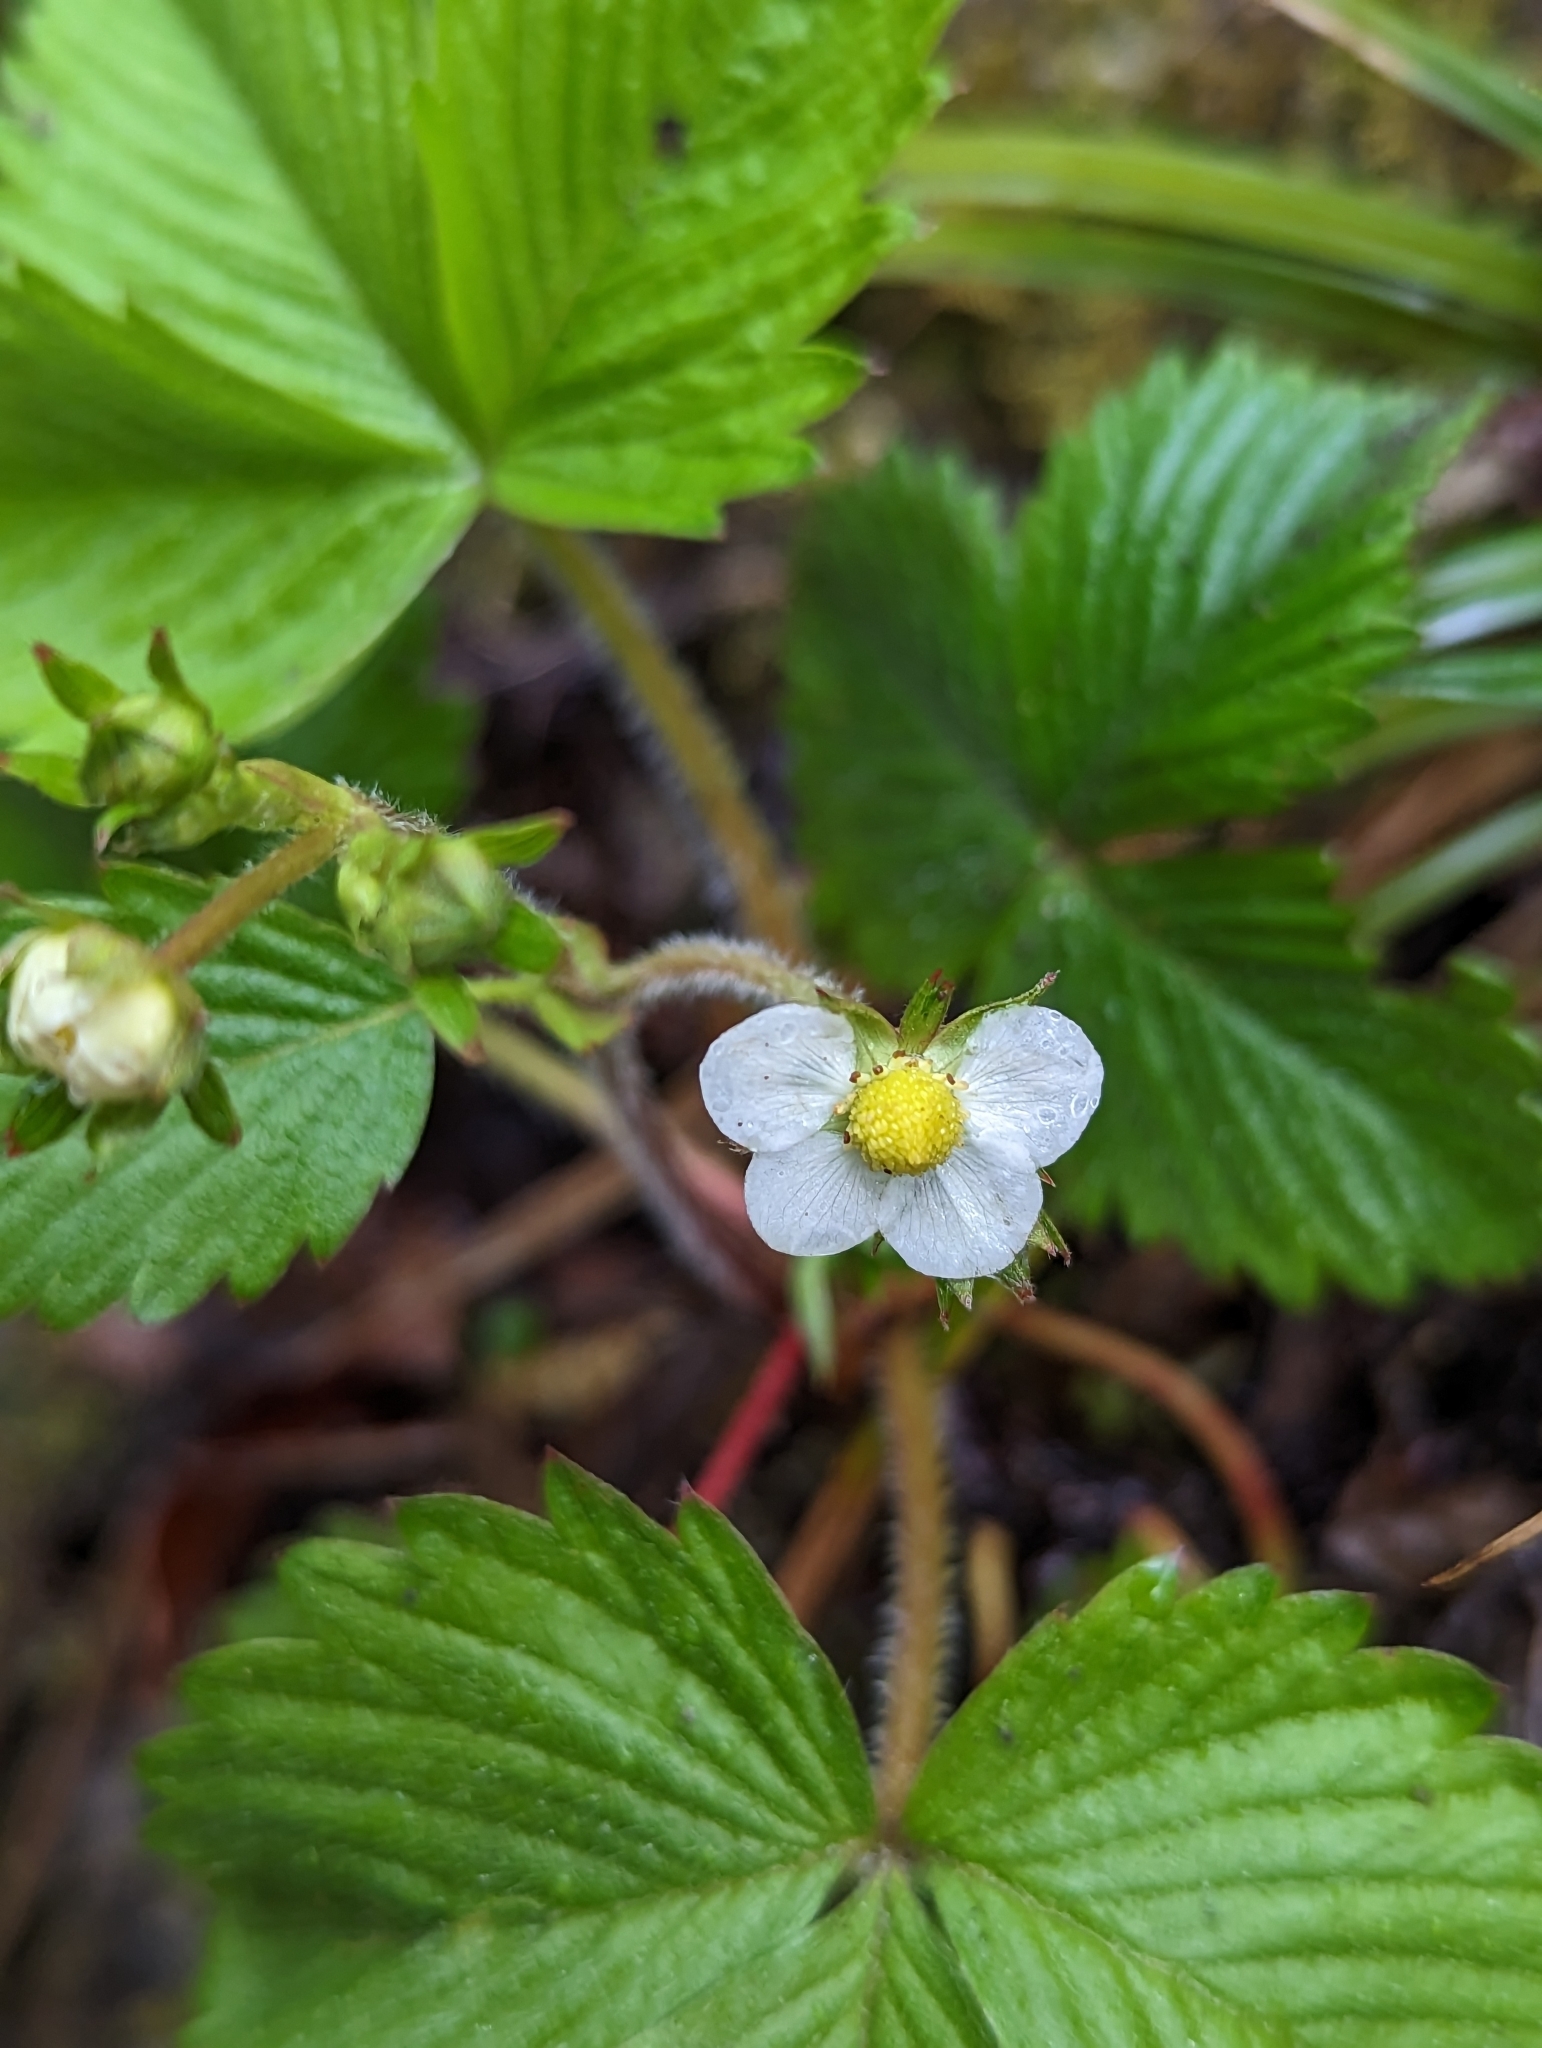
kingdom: Plantae
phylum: Tracheophyta
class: Magnoliopsida
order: Rosales
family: Rosaceae
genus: Fragaria
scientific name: Fragaria vesca
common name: Wild strawberry
